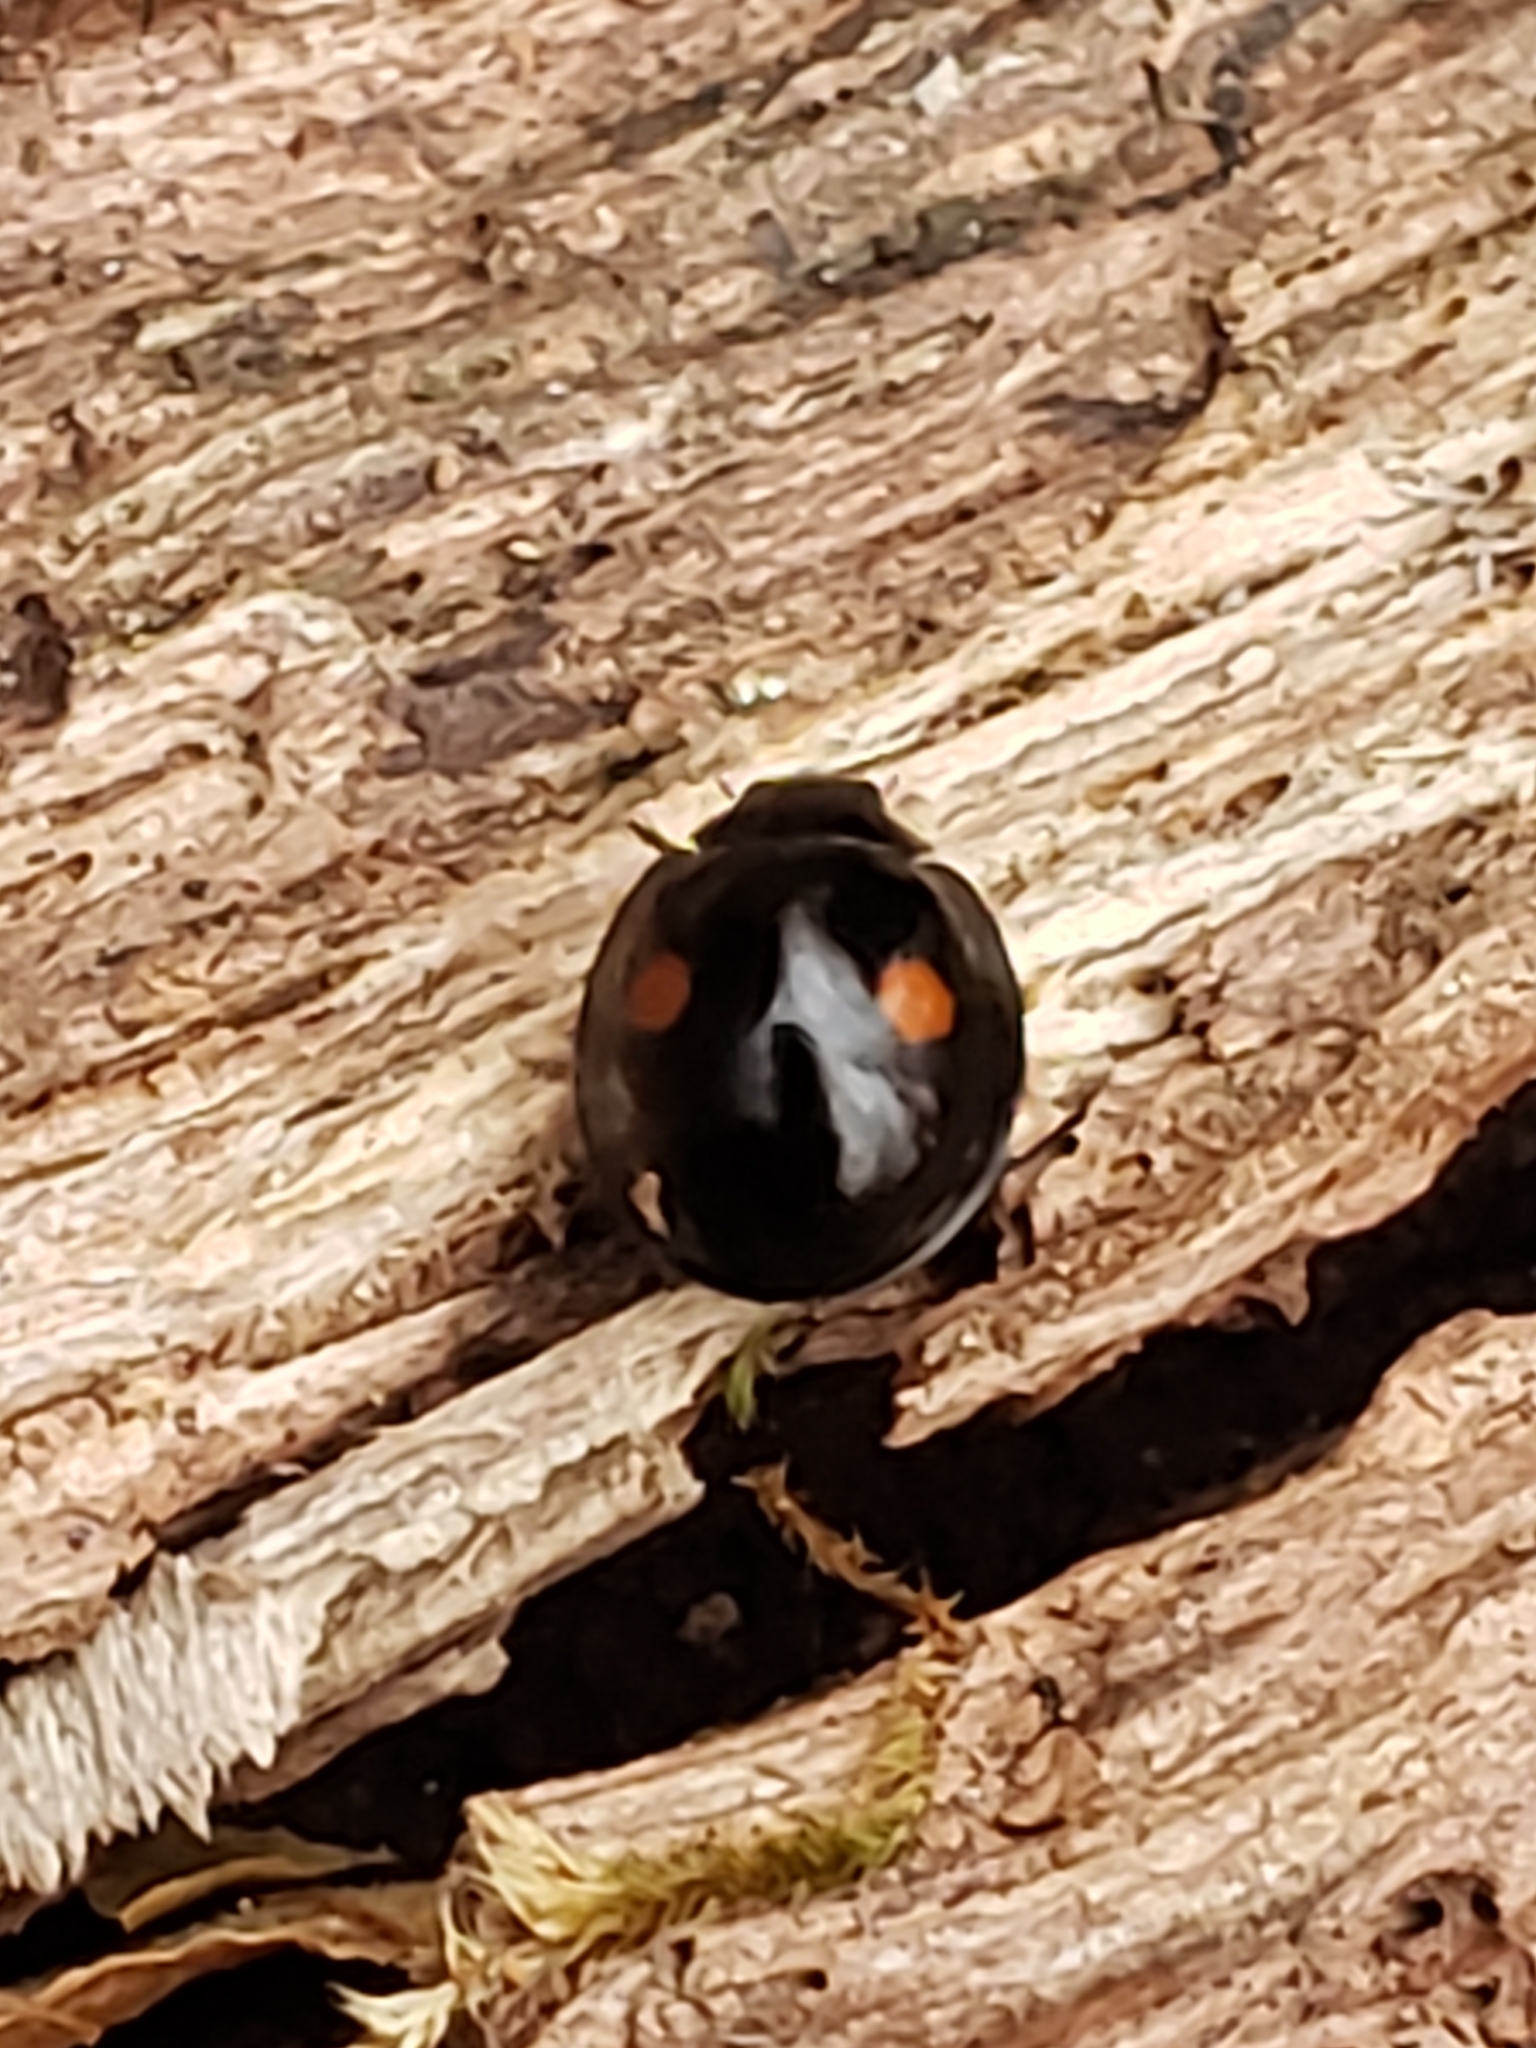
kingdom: Animalia
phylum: Arthropoda
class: Insecta
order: Coleoptera
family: Coccinellidae
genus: Chilocorus
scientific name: Chilocorus stigma
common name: Twicestabbed lady beetle
